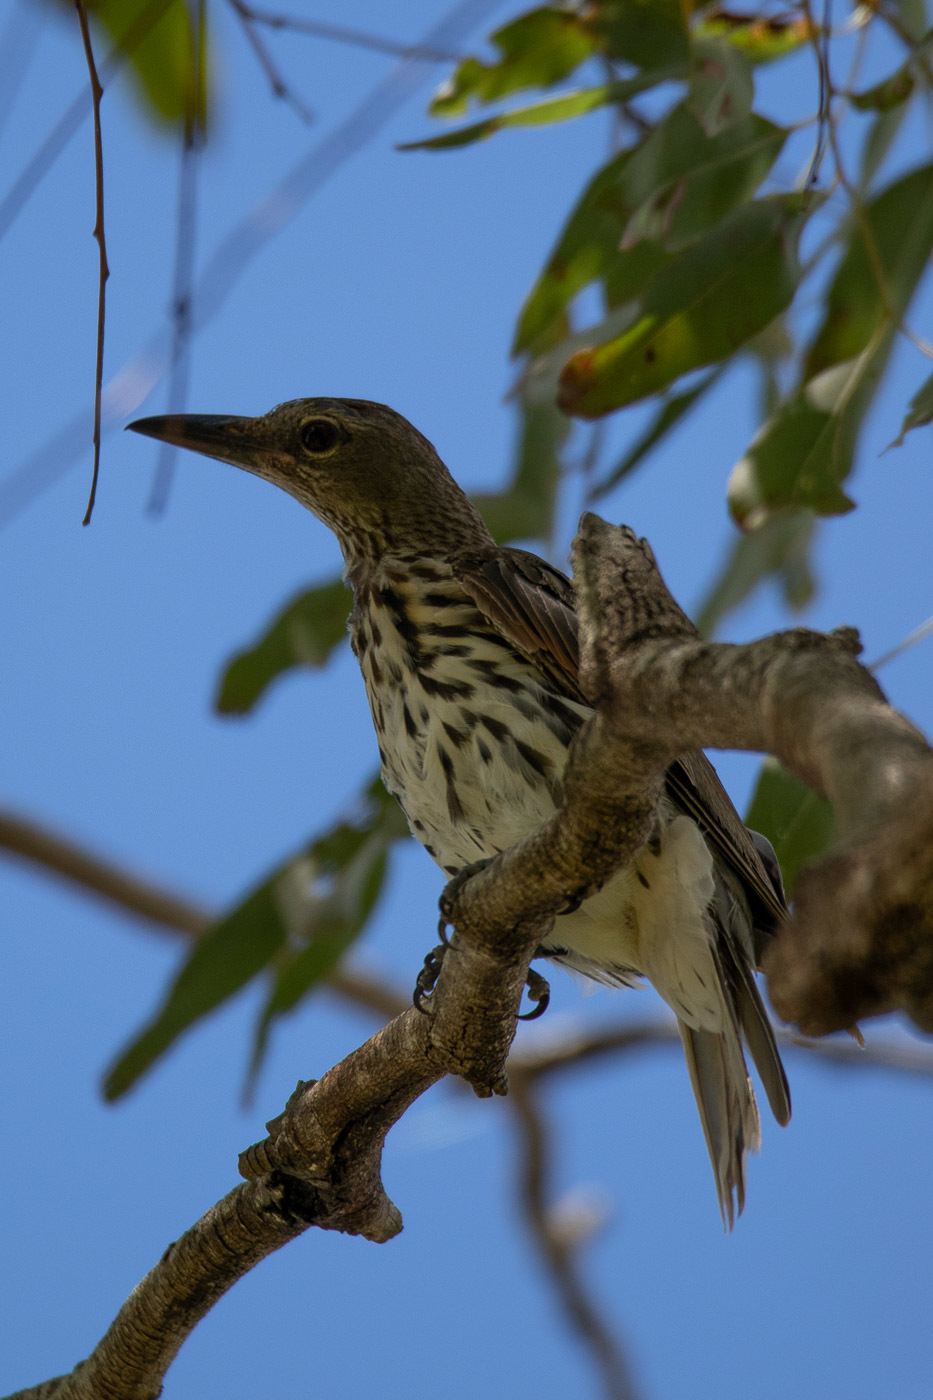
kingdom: Animalia
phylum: Chordata
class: Aves
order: Passeriformes
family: Oriolidae
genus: Oriolus
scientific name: Oriolus sagittatus
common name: Olive-backed oriole
